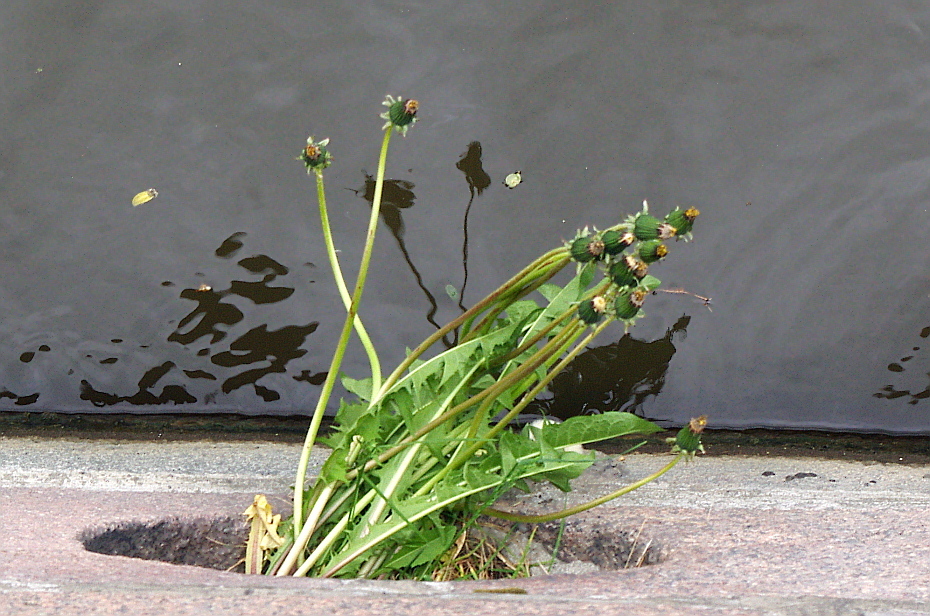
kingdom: Plantae
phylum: Tracheophyta
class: Magnoliopsida
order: Asterales
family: Asteraceae
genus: Taraxacum
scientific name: Taraxacum officinale
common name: Common dandelion
